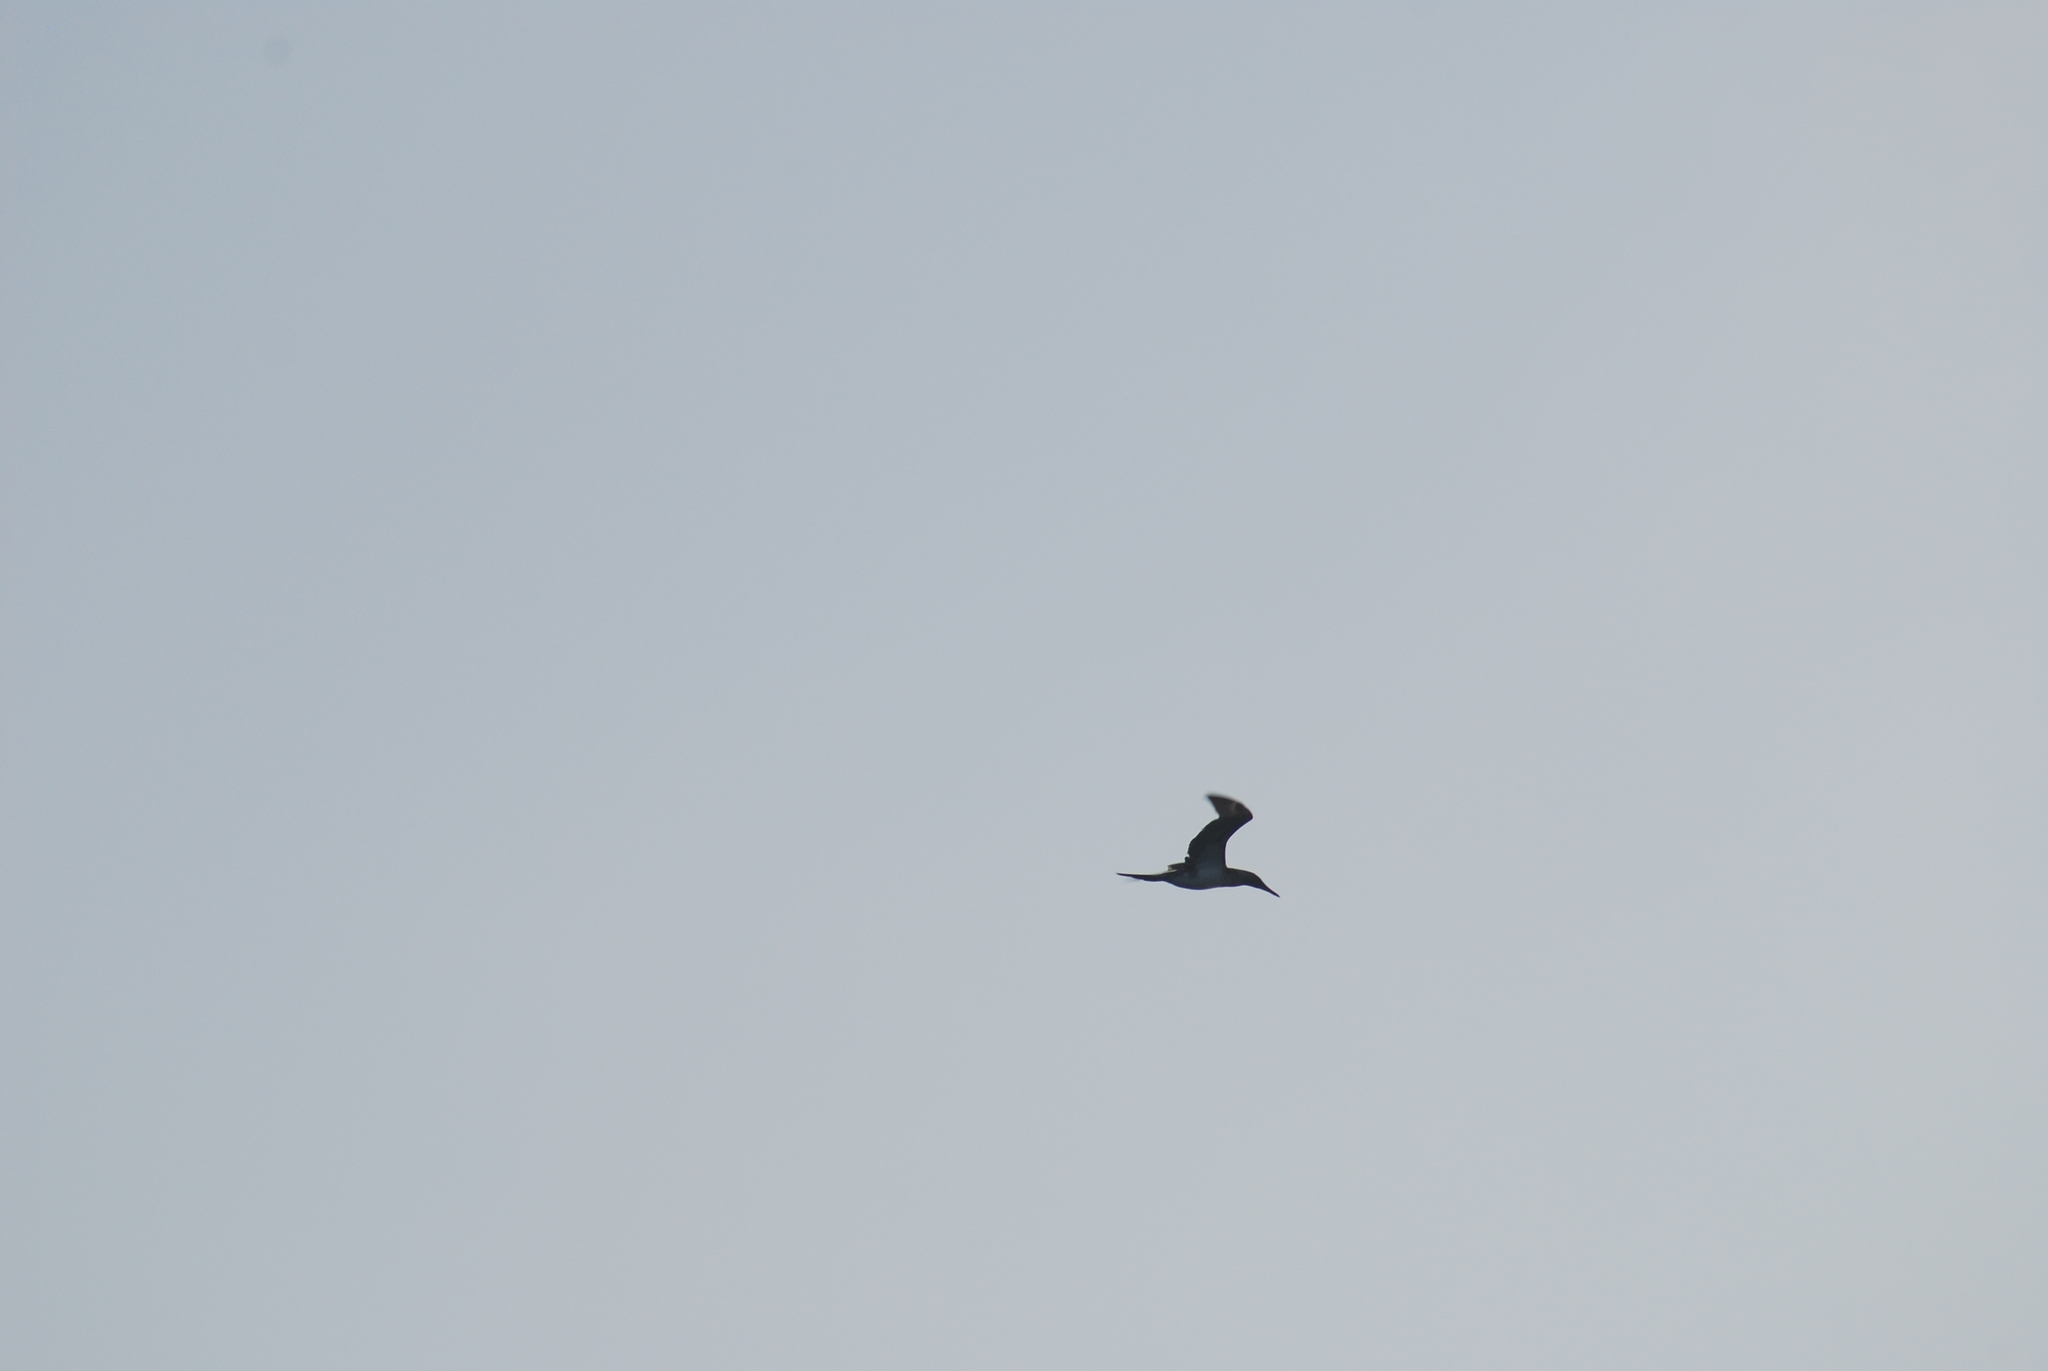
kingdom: Animalia
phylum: Chordata
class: Aves
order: Suliformes
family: Sulidae
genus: Sula
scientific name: Sula nebouxii
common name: Blue-footed booby
